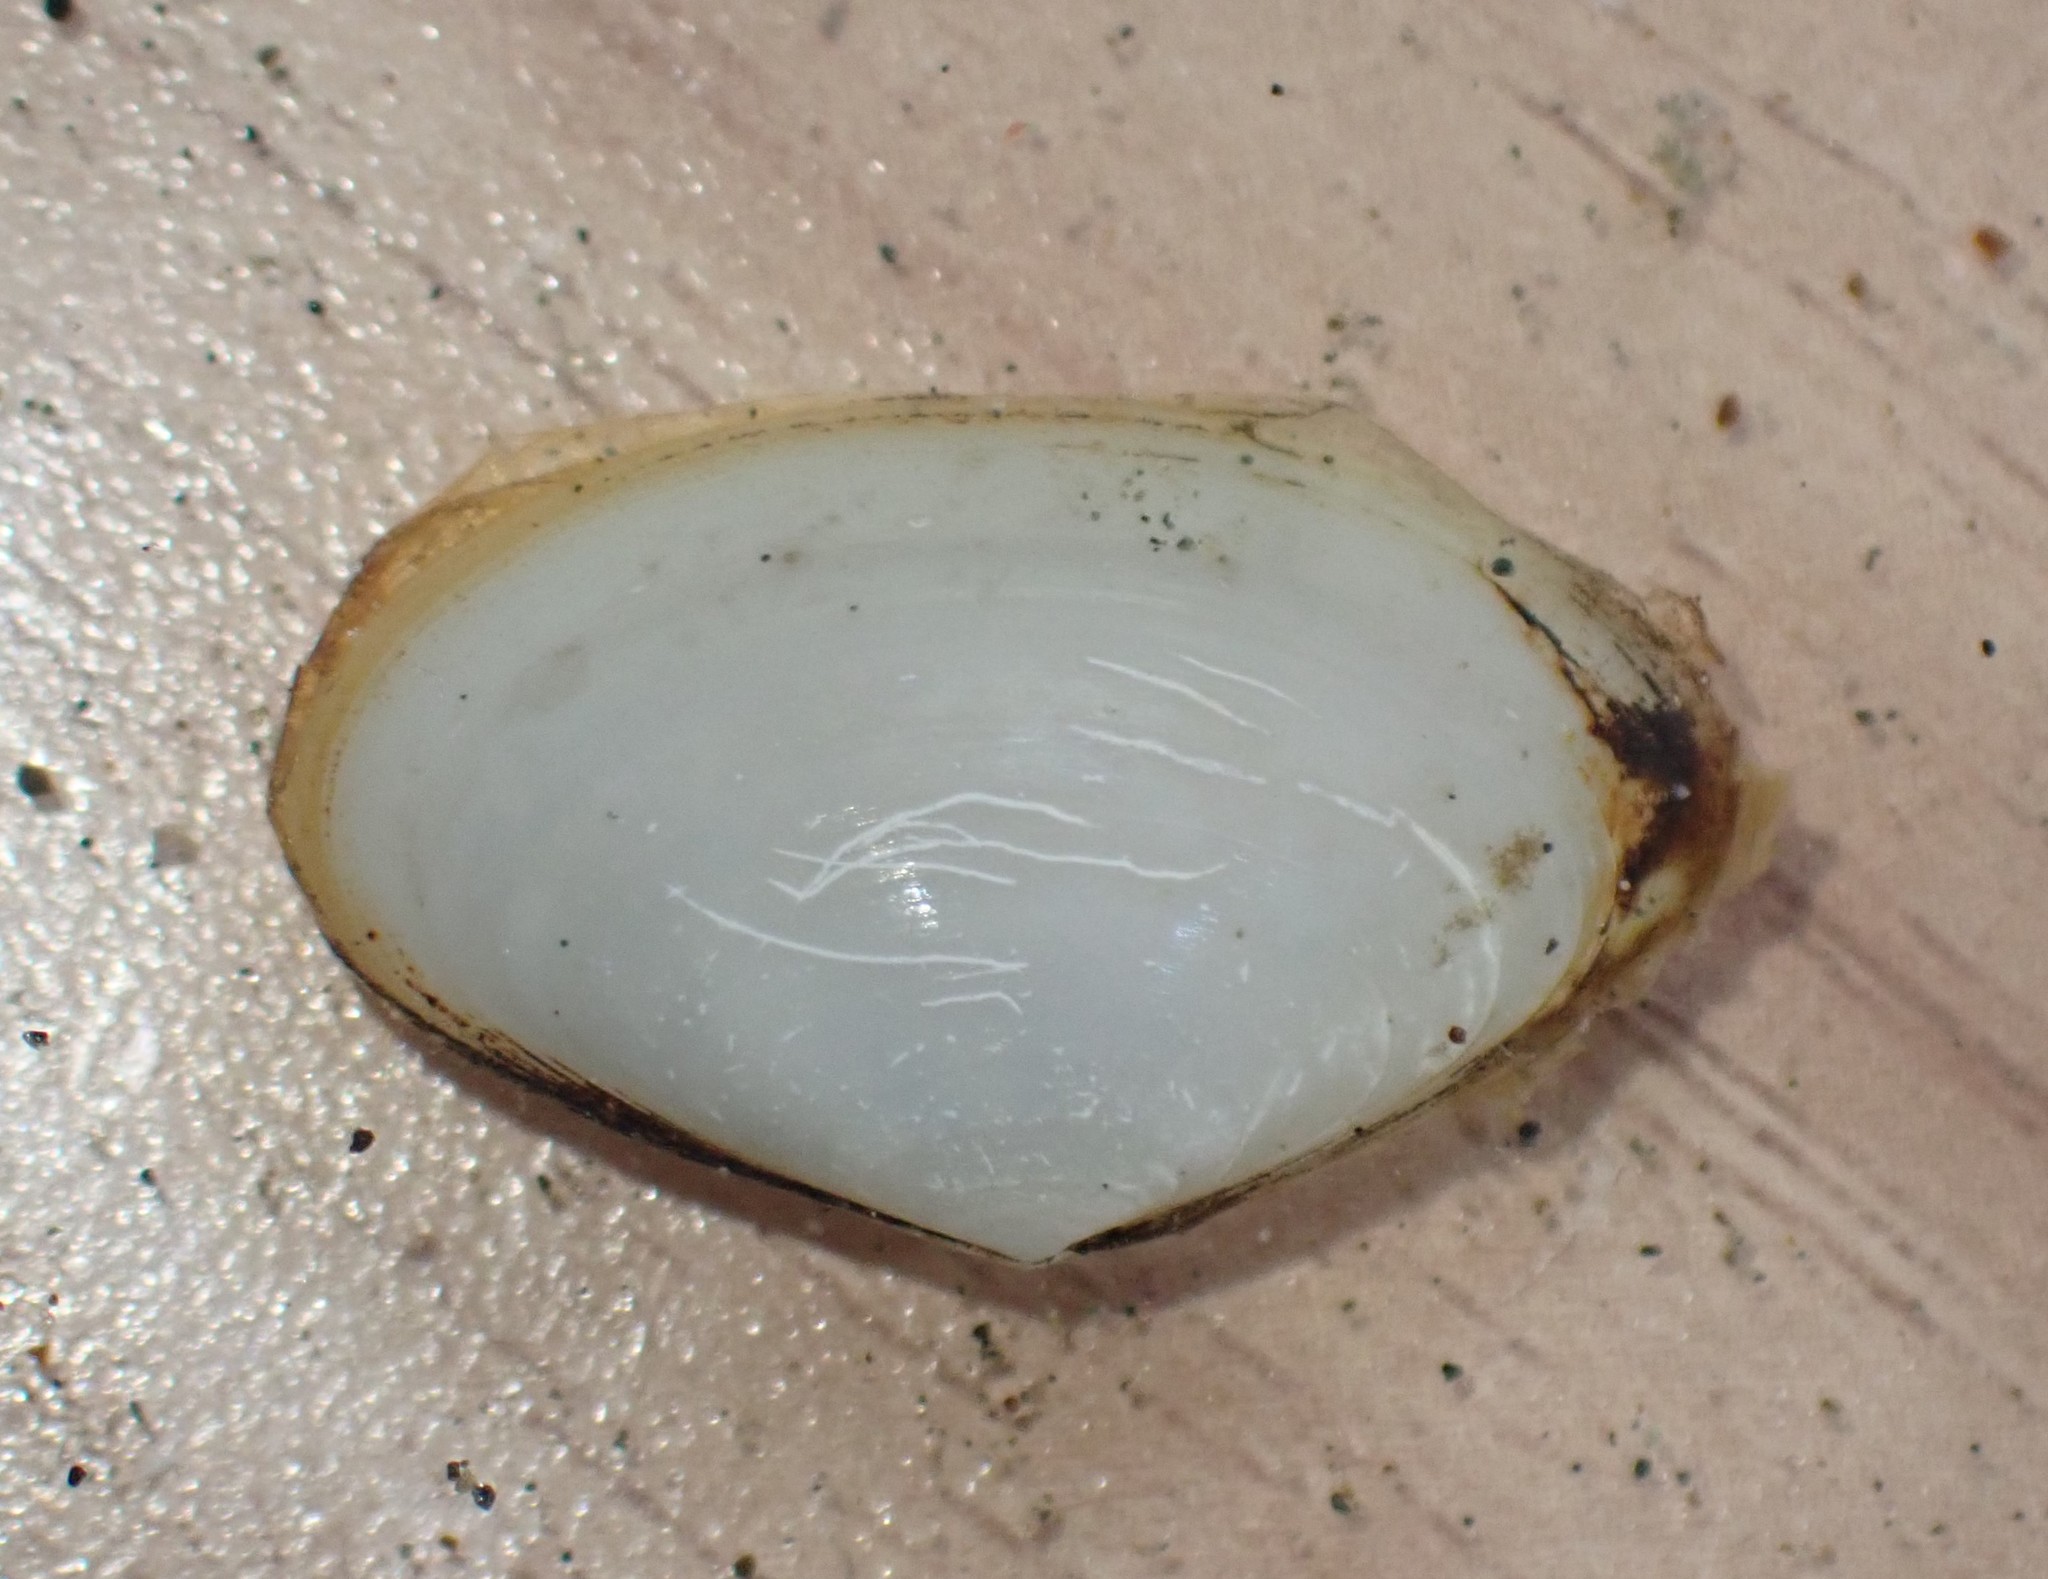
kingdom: Animalia
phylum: Mollusca
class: Bivalvia
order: Venerida
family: Mactridae
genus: Scalpomactra
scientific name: Scalpomactra scalpellum
